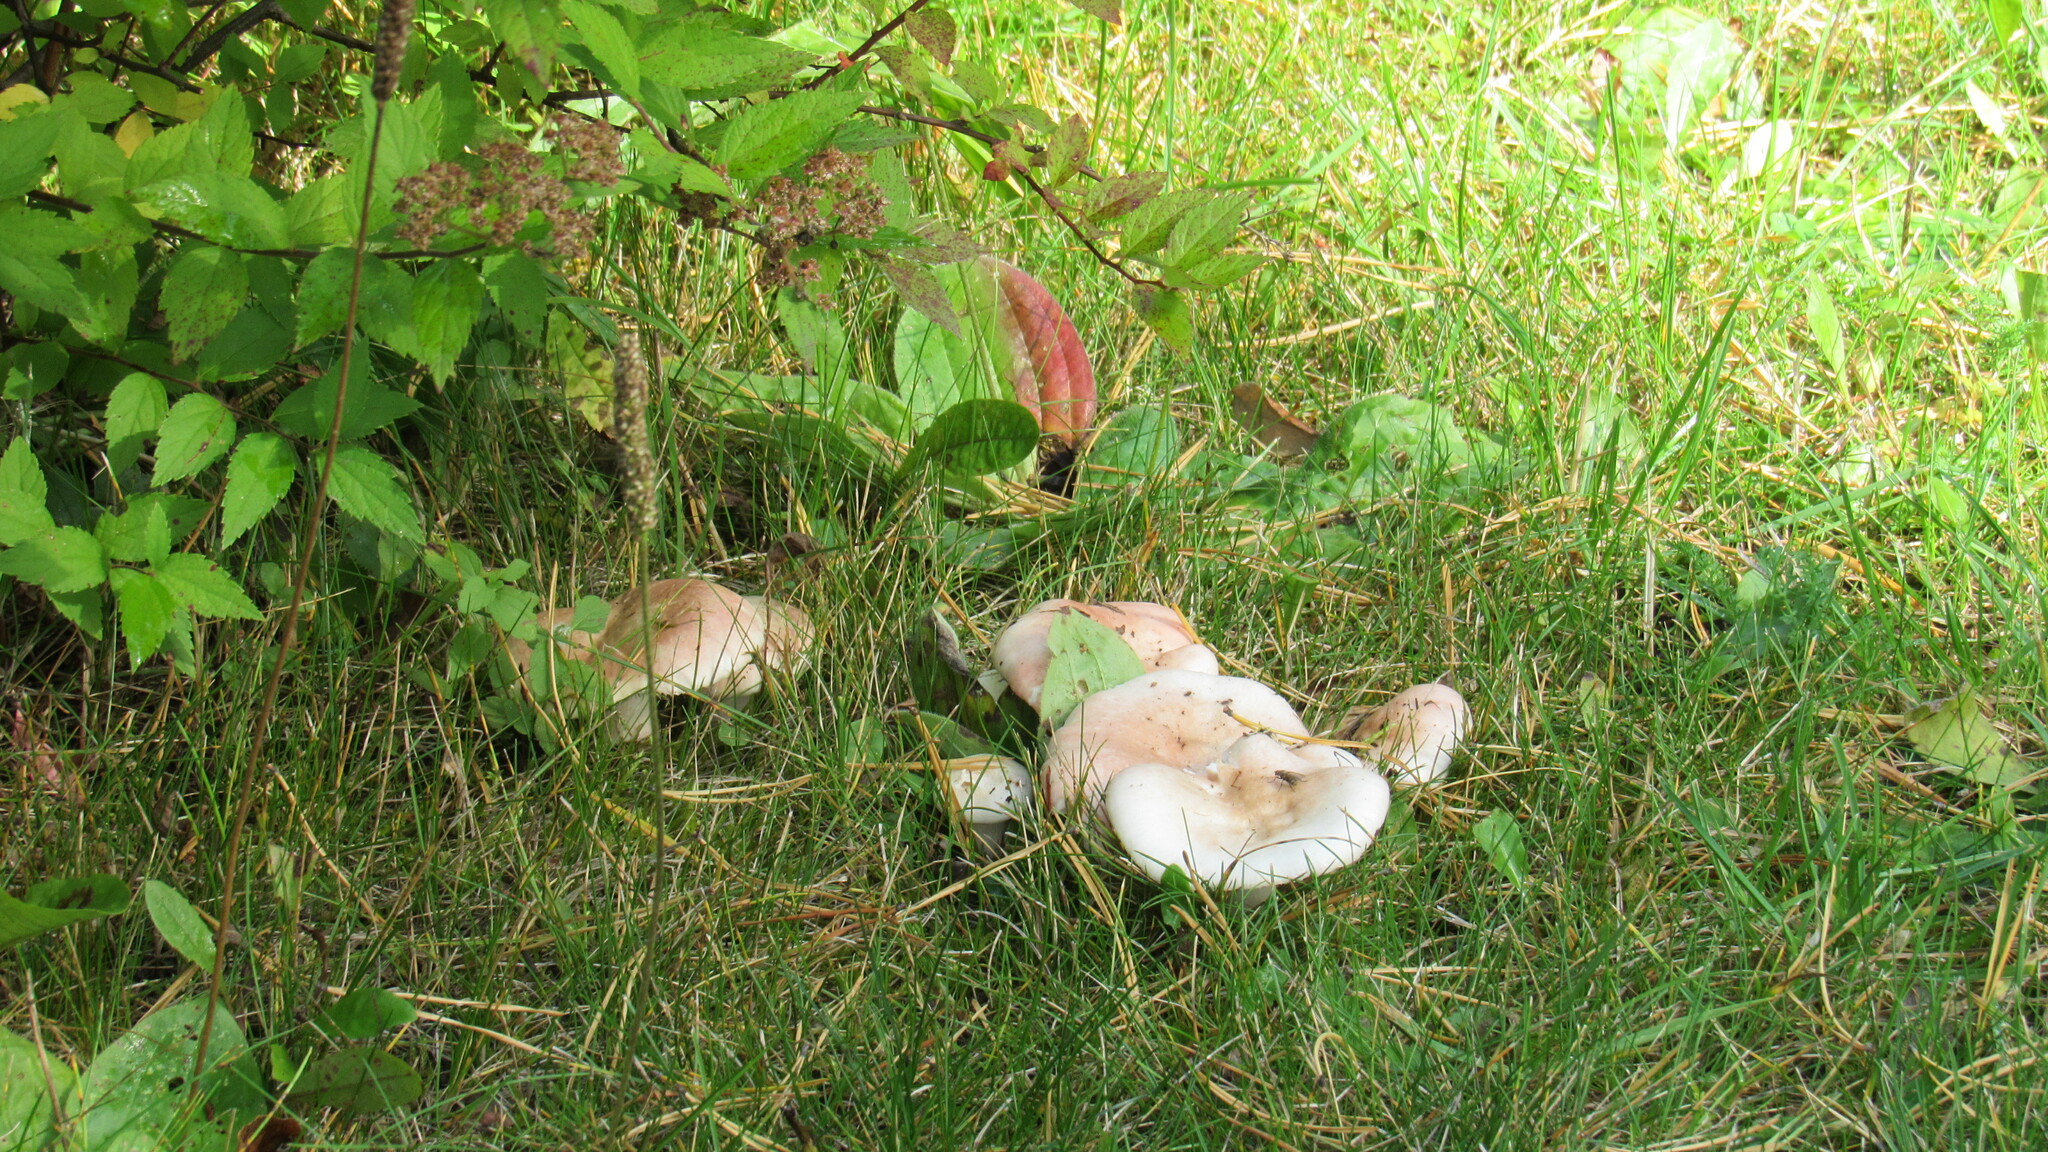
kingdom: Fungi
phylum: Basidiomycota
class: Agaricomycetes
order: Agaricales
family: Agaricaceae
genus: Agaricus
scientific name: Agaricus campestris
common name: Field mushroom
